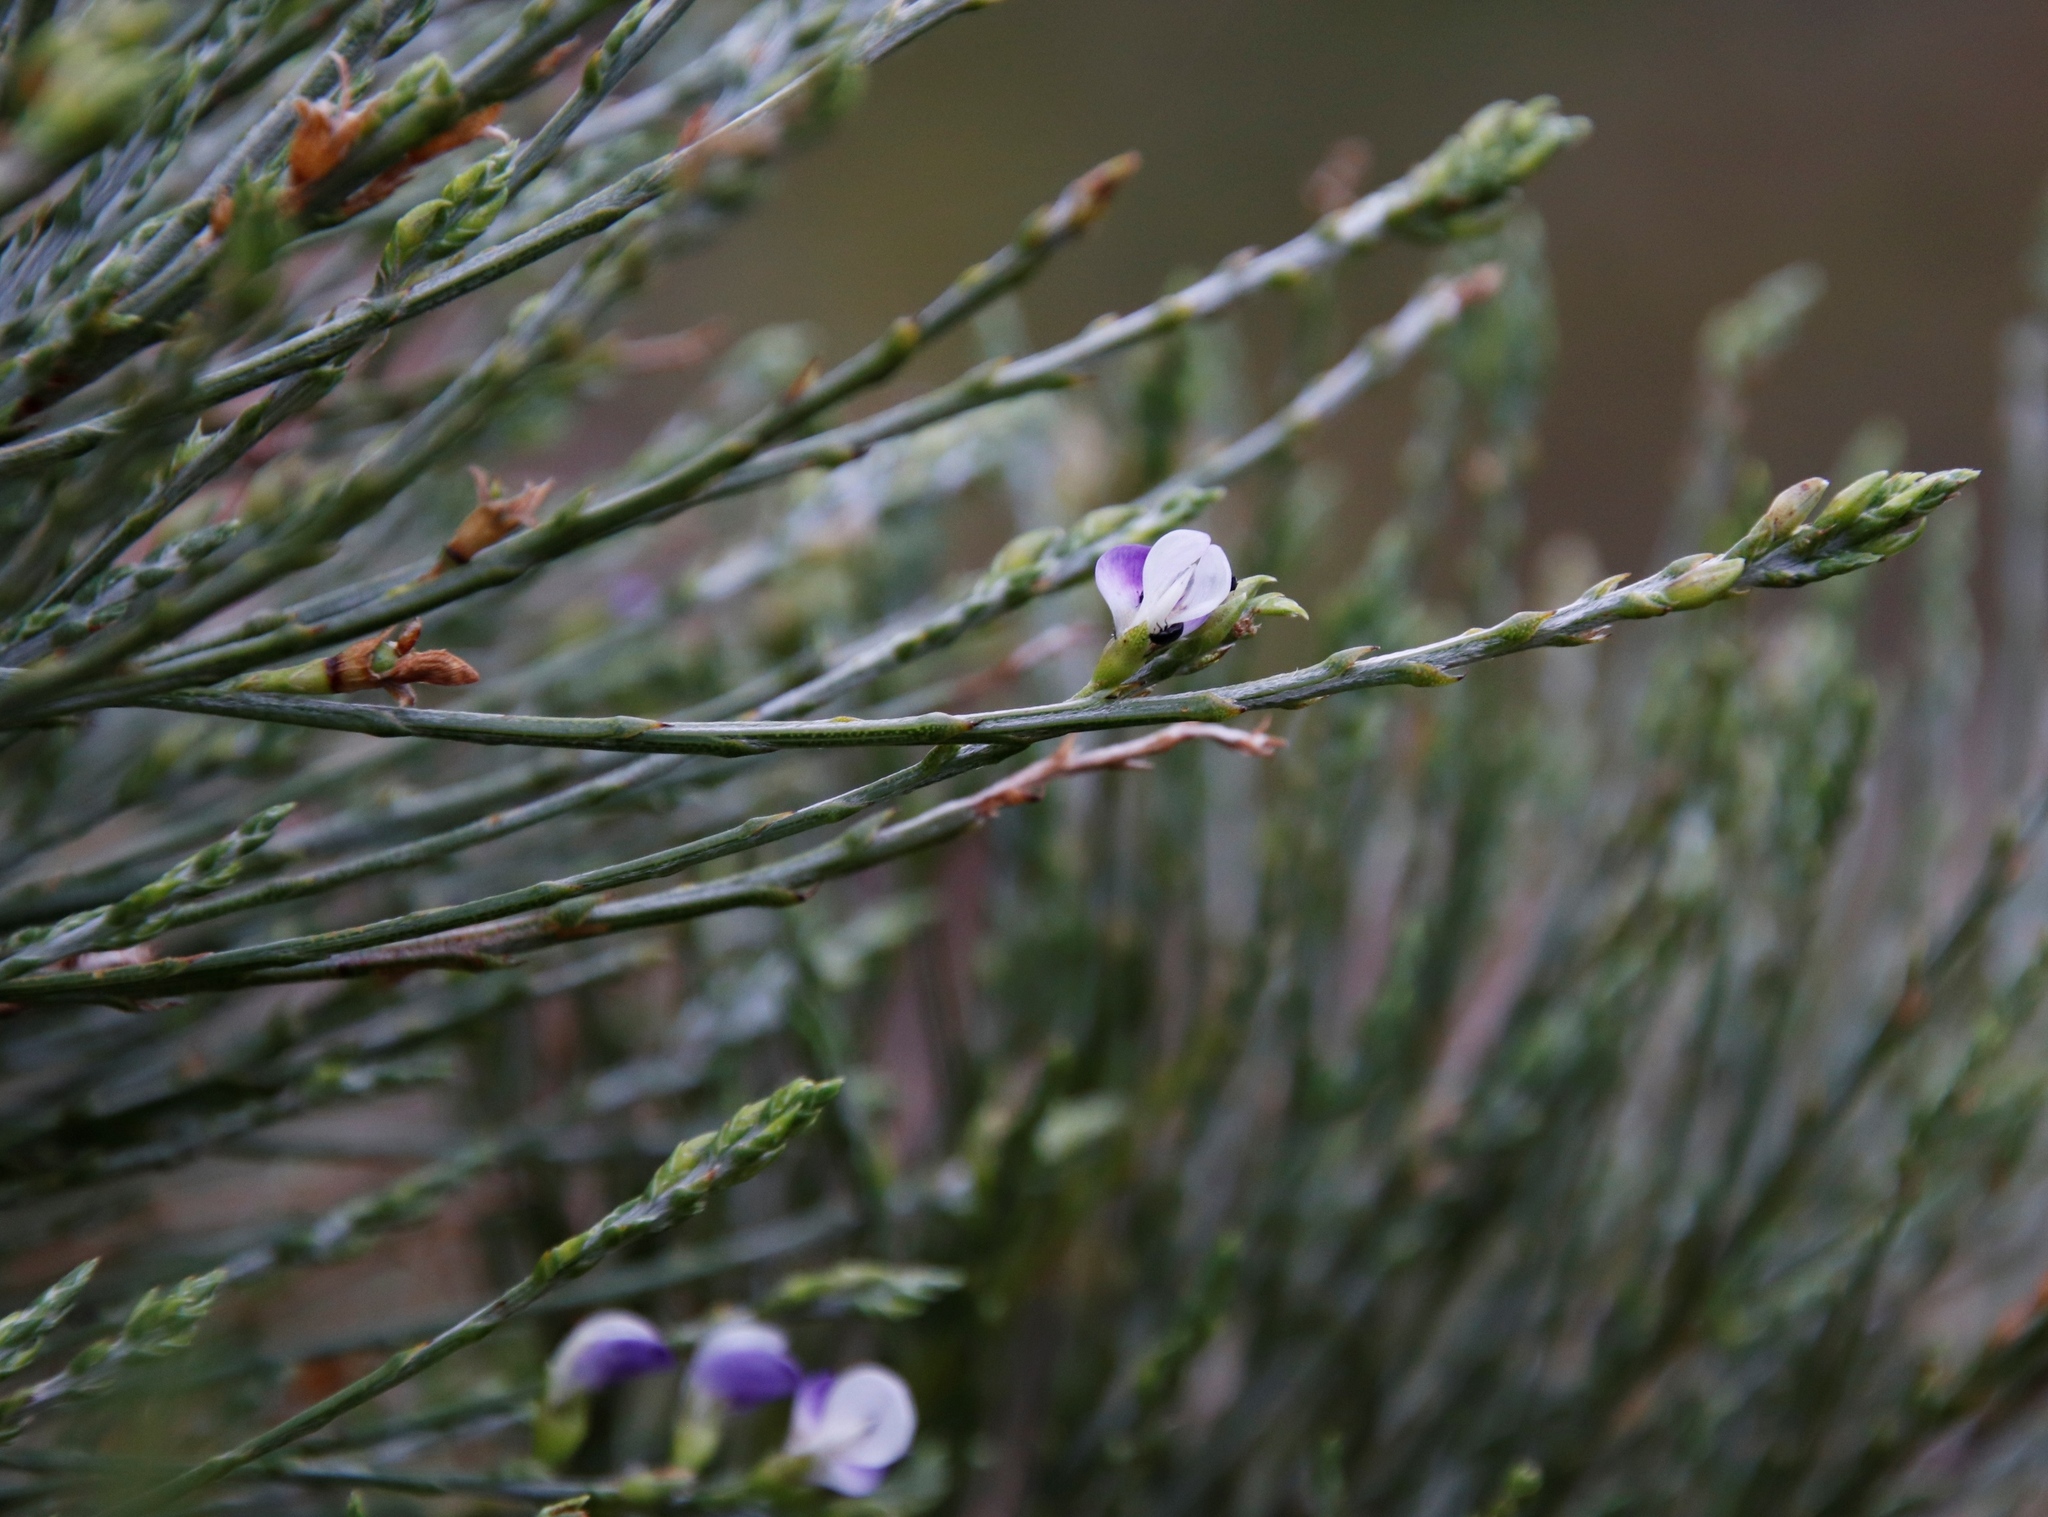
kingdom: Plantae
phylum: Tracheophyta
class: Magnoliopsida
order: Fabales
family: Fabaceae
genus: Psoralea
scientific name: Psoralea aphylla
